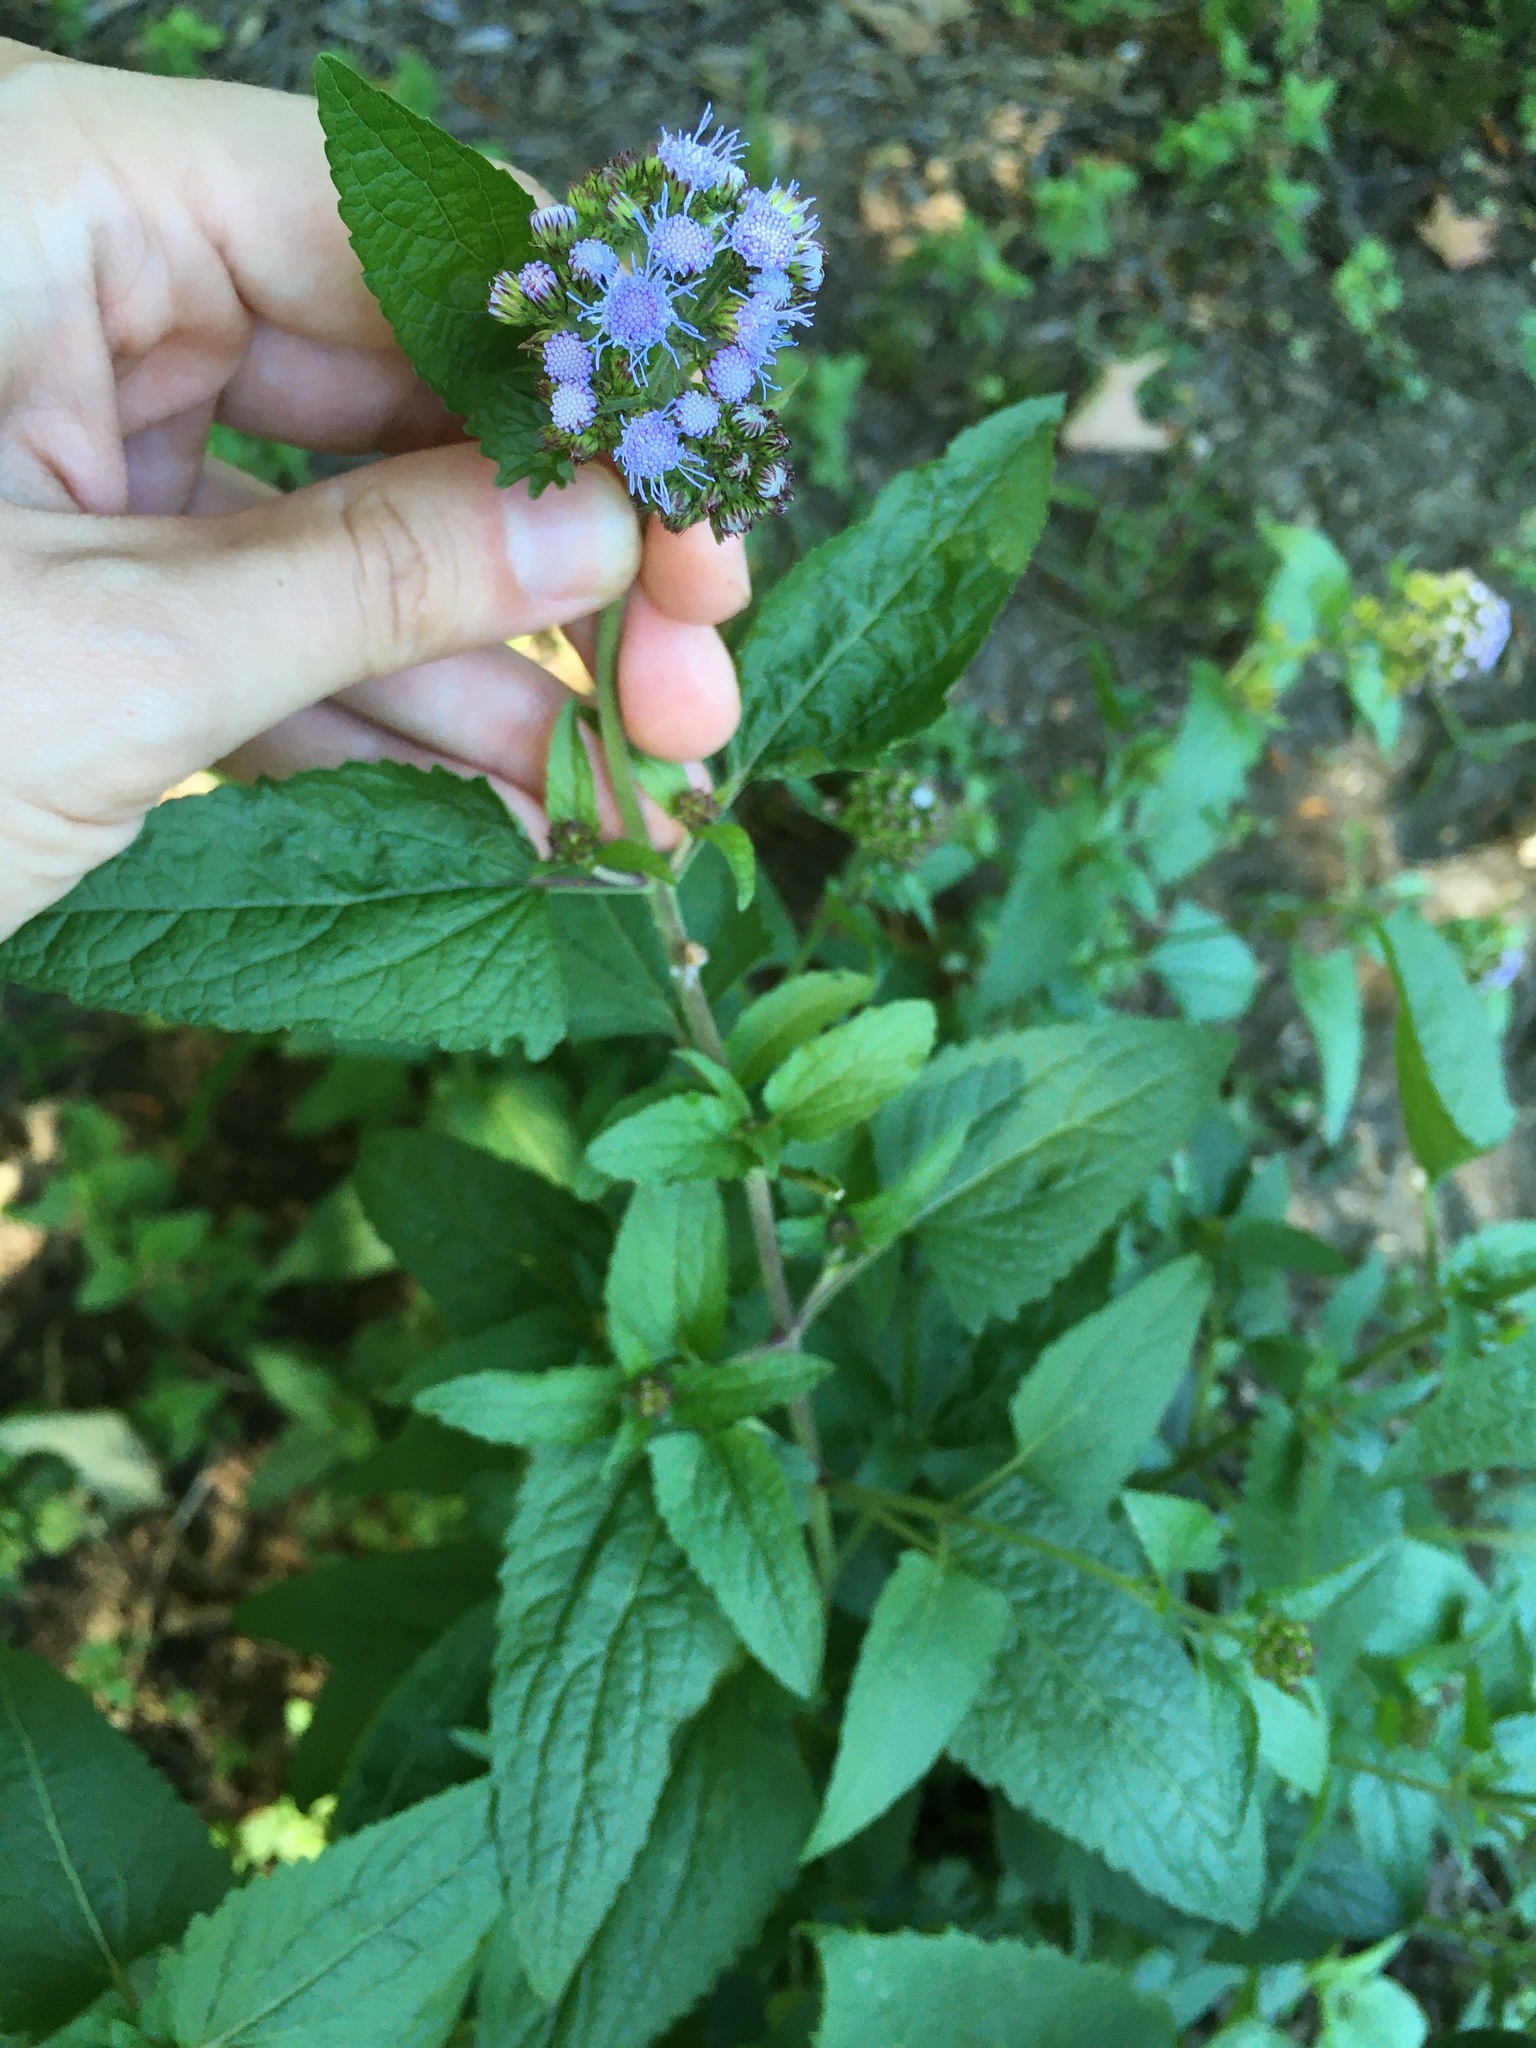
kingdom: Plantae
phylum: Tracheophyta
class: Magnoliopsida
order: Asterales
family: Asteraceae
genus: Conoclinium
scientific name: Conoclinium coelestinum
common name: Blue mistflower
